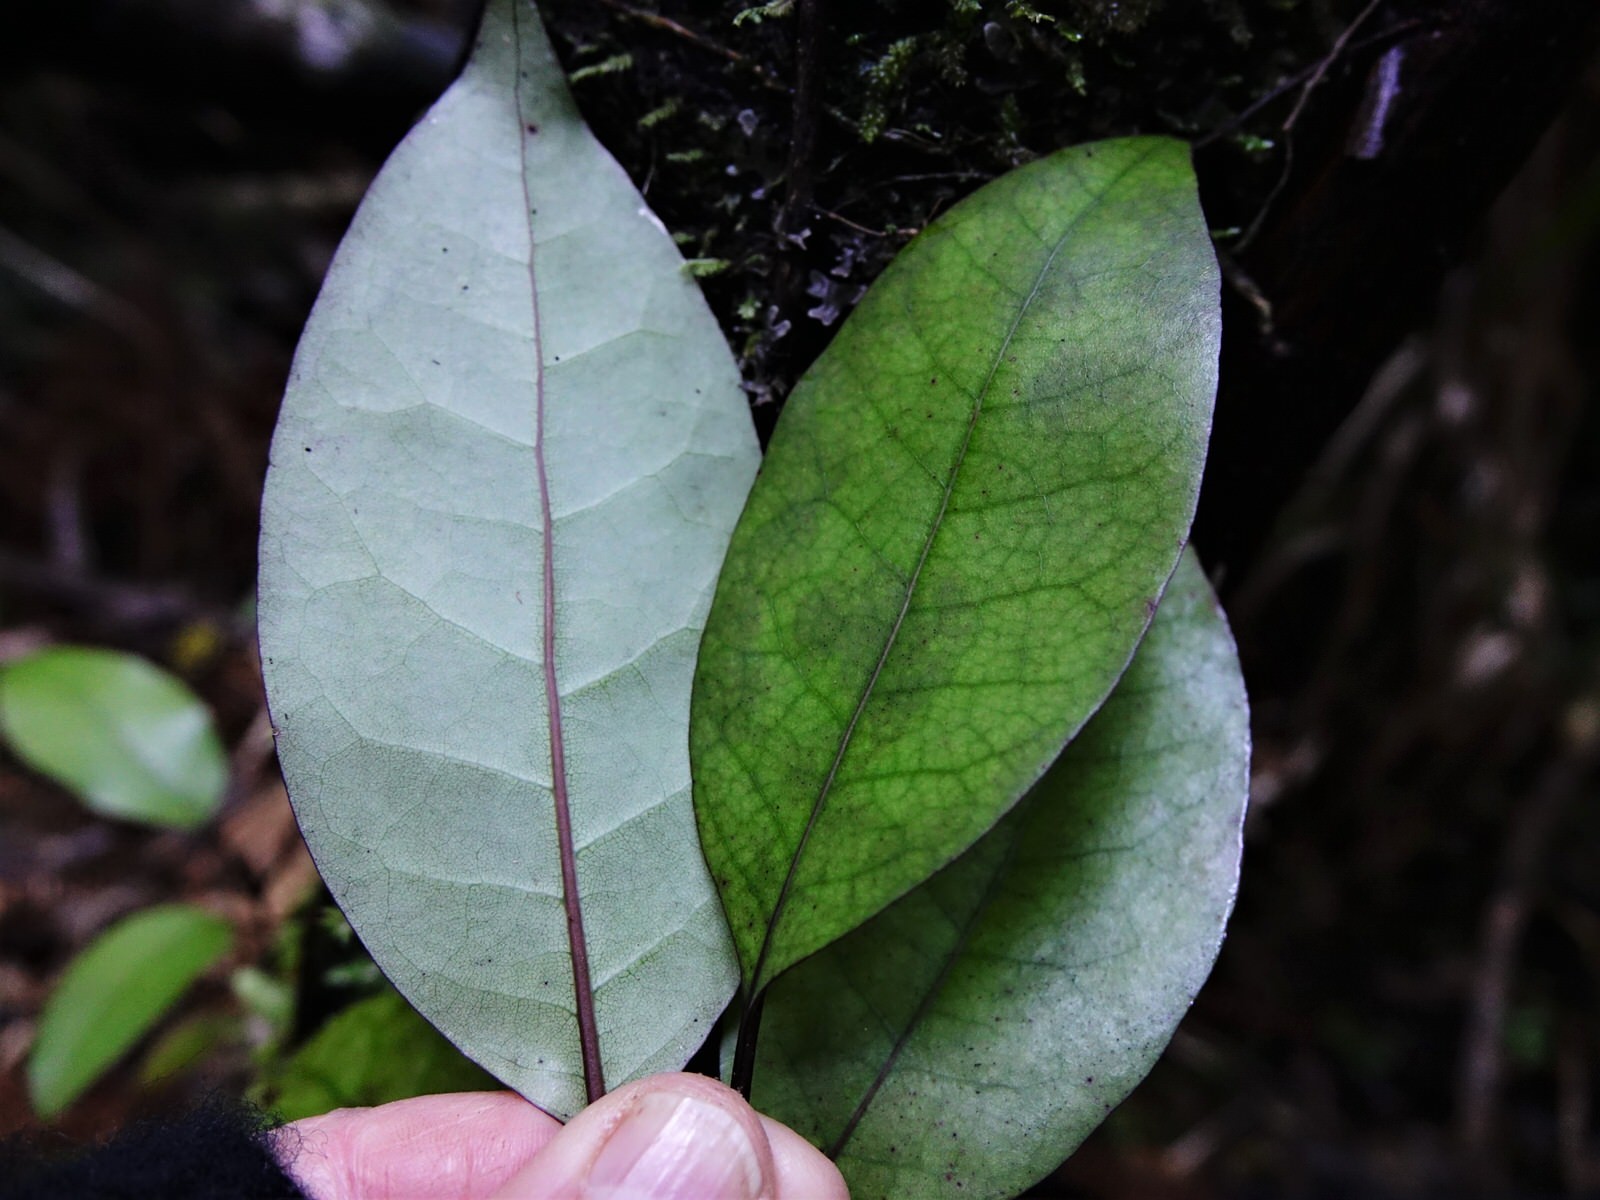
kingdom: Plantae
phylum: Tracheophyta
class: Magnoliopsida
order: Laurales
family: Lauraceae
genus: Litsea
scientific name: Litsea calicaris
